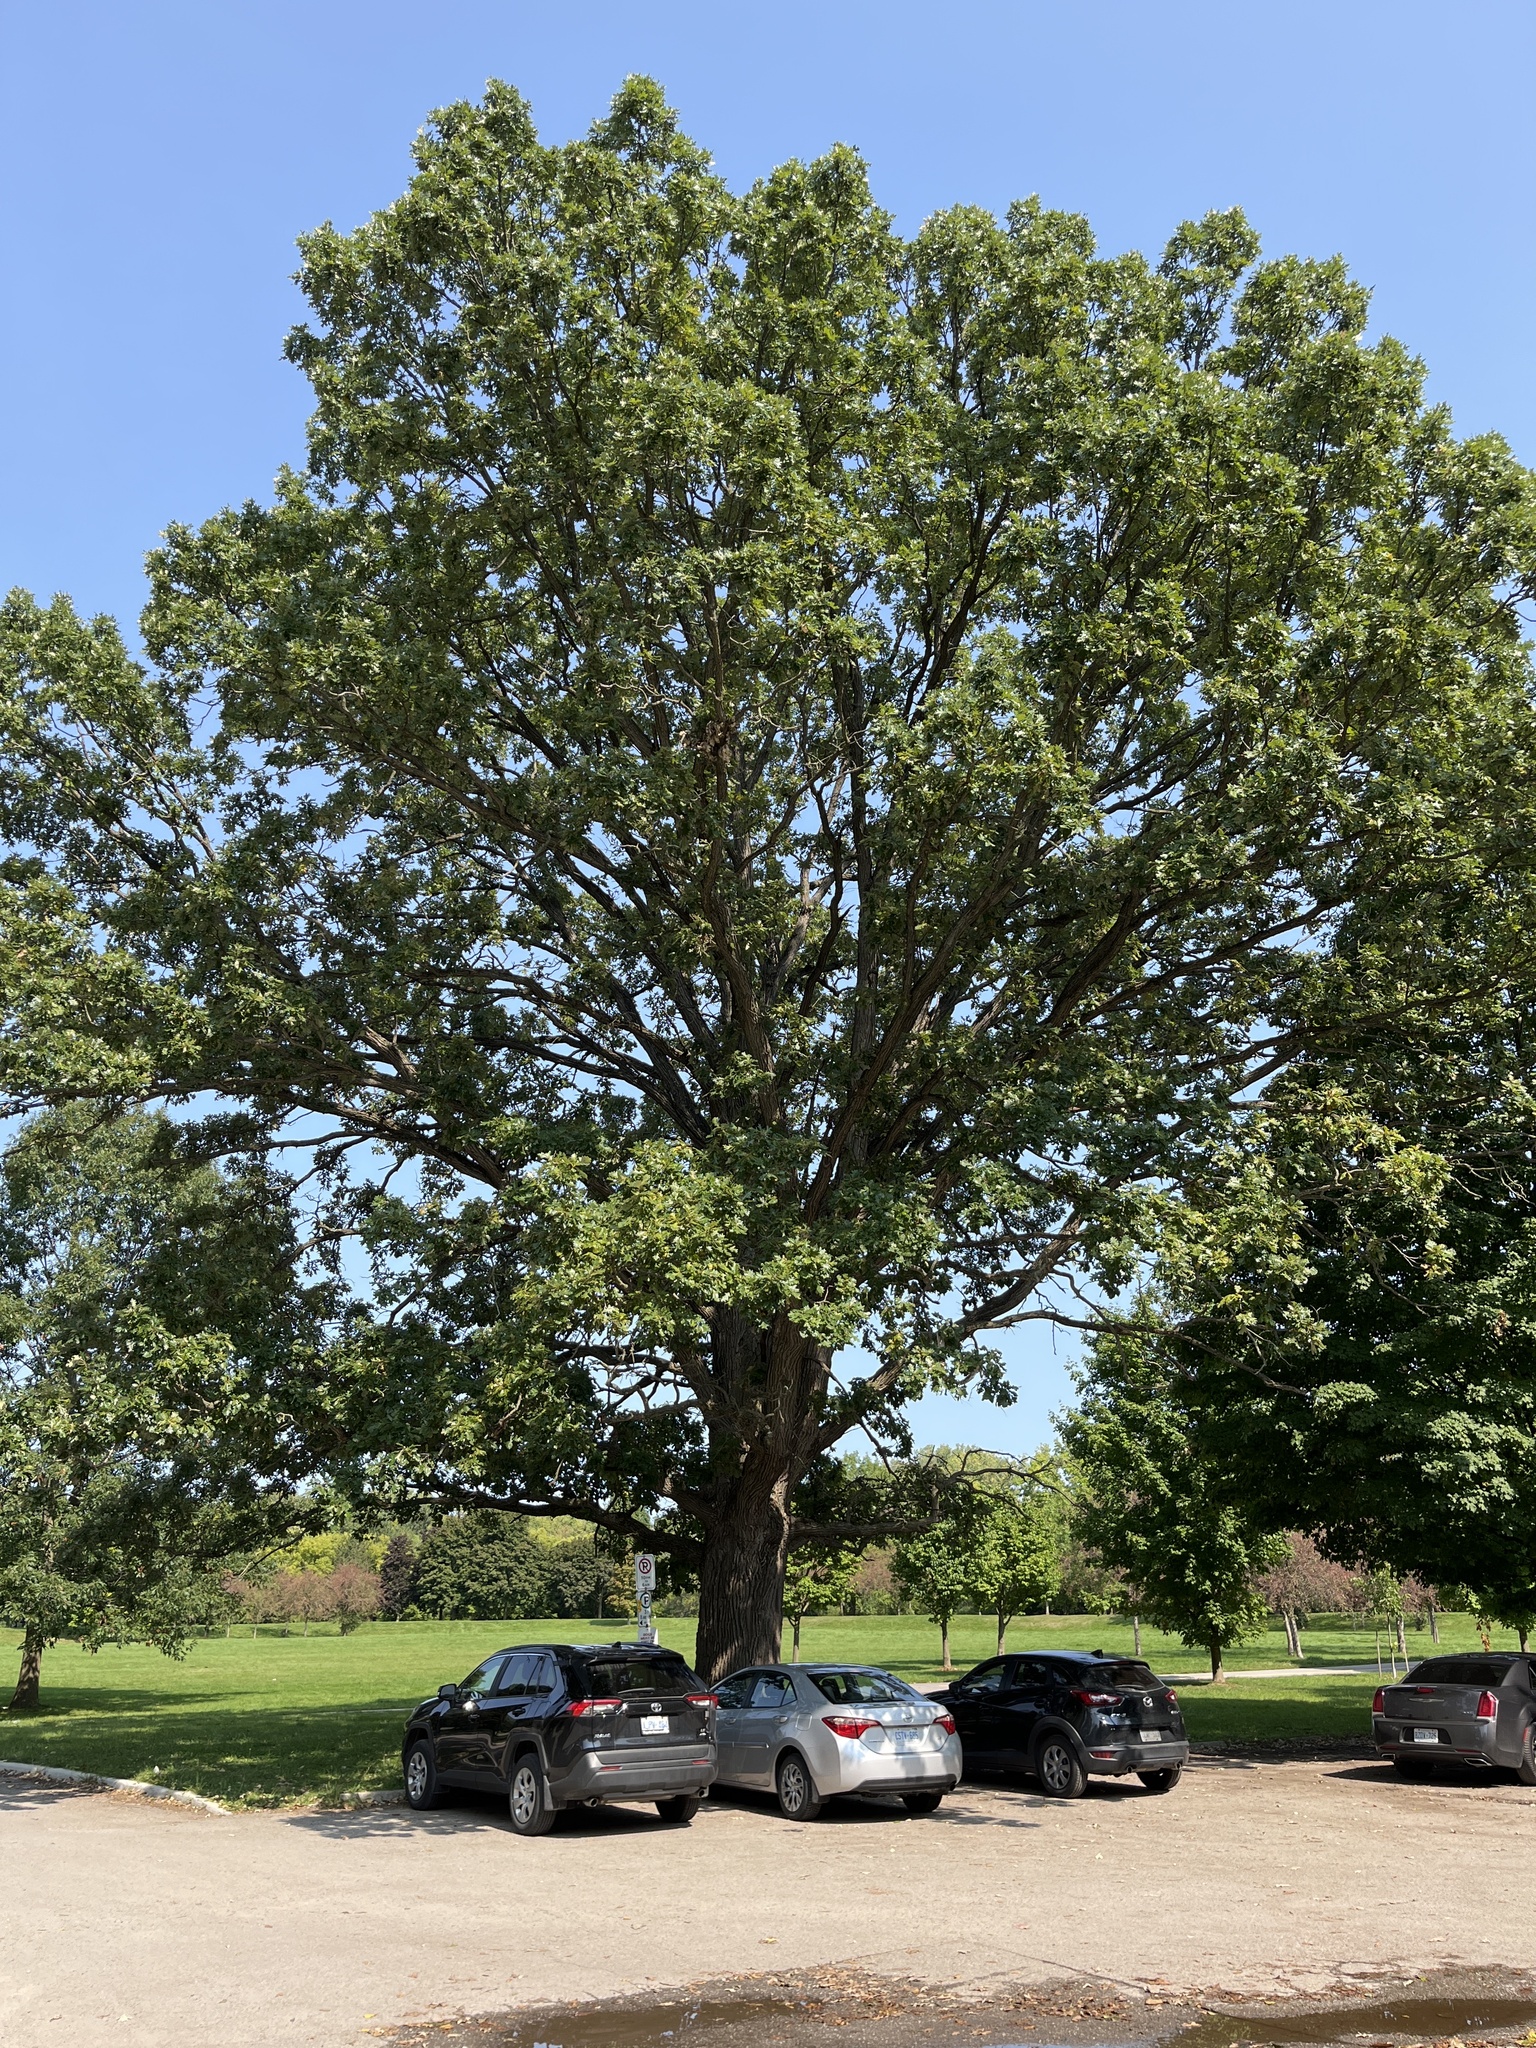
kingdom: Plantae
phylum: Tracheophyta
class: Magnoliopsida
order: Fagales
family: Fagaceae
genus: Quercus
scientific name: Quercus macrocarpa
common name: Bur oak
